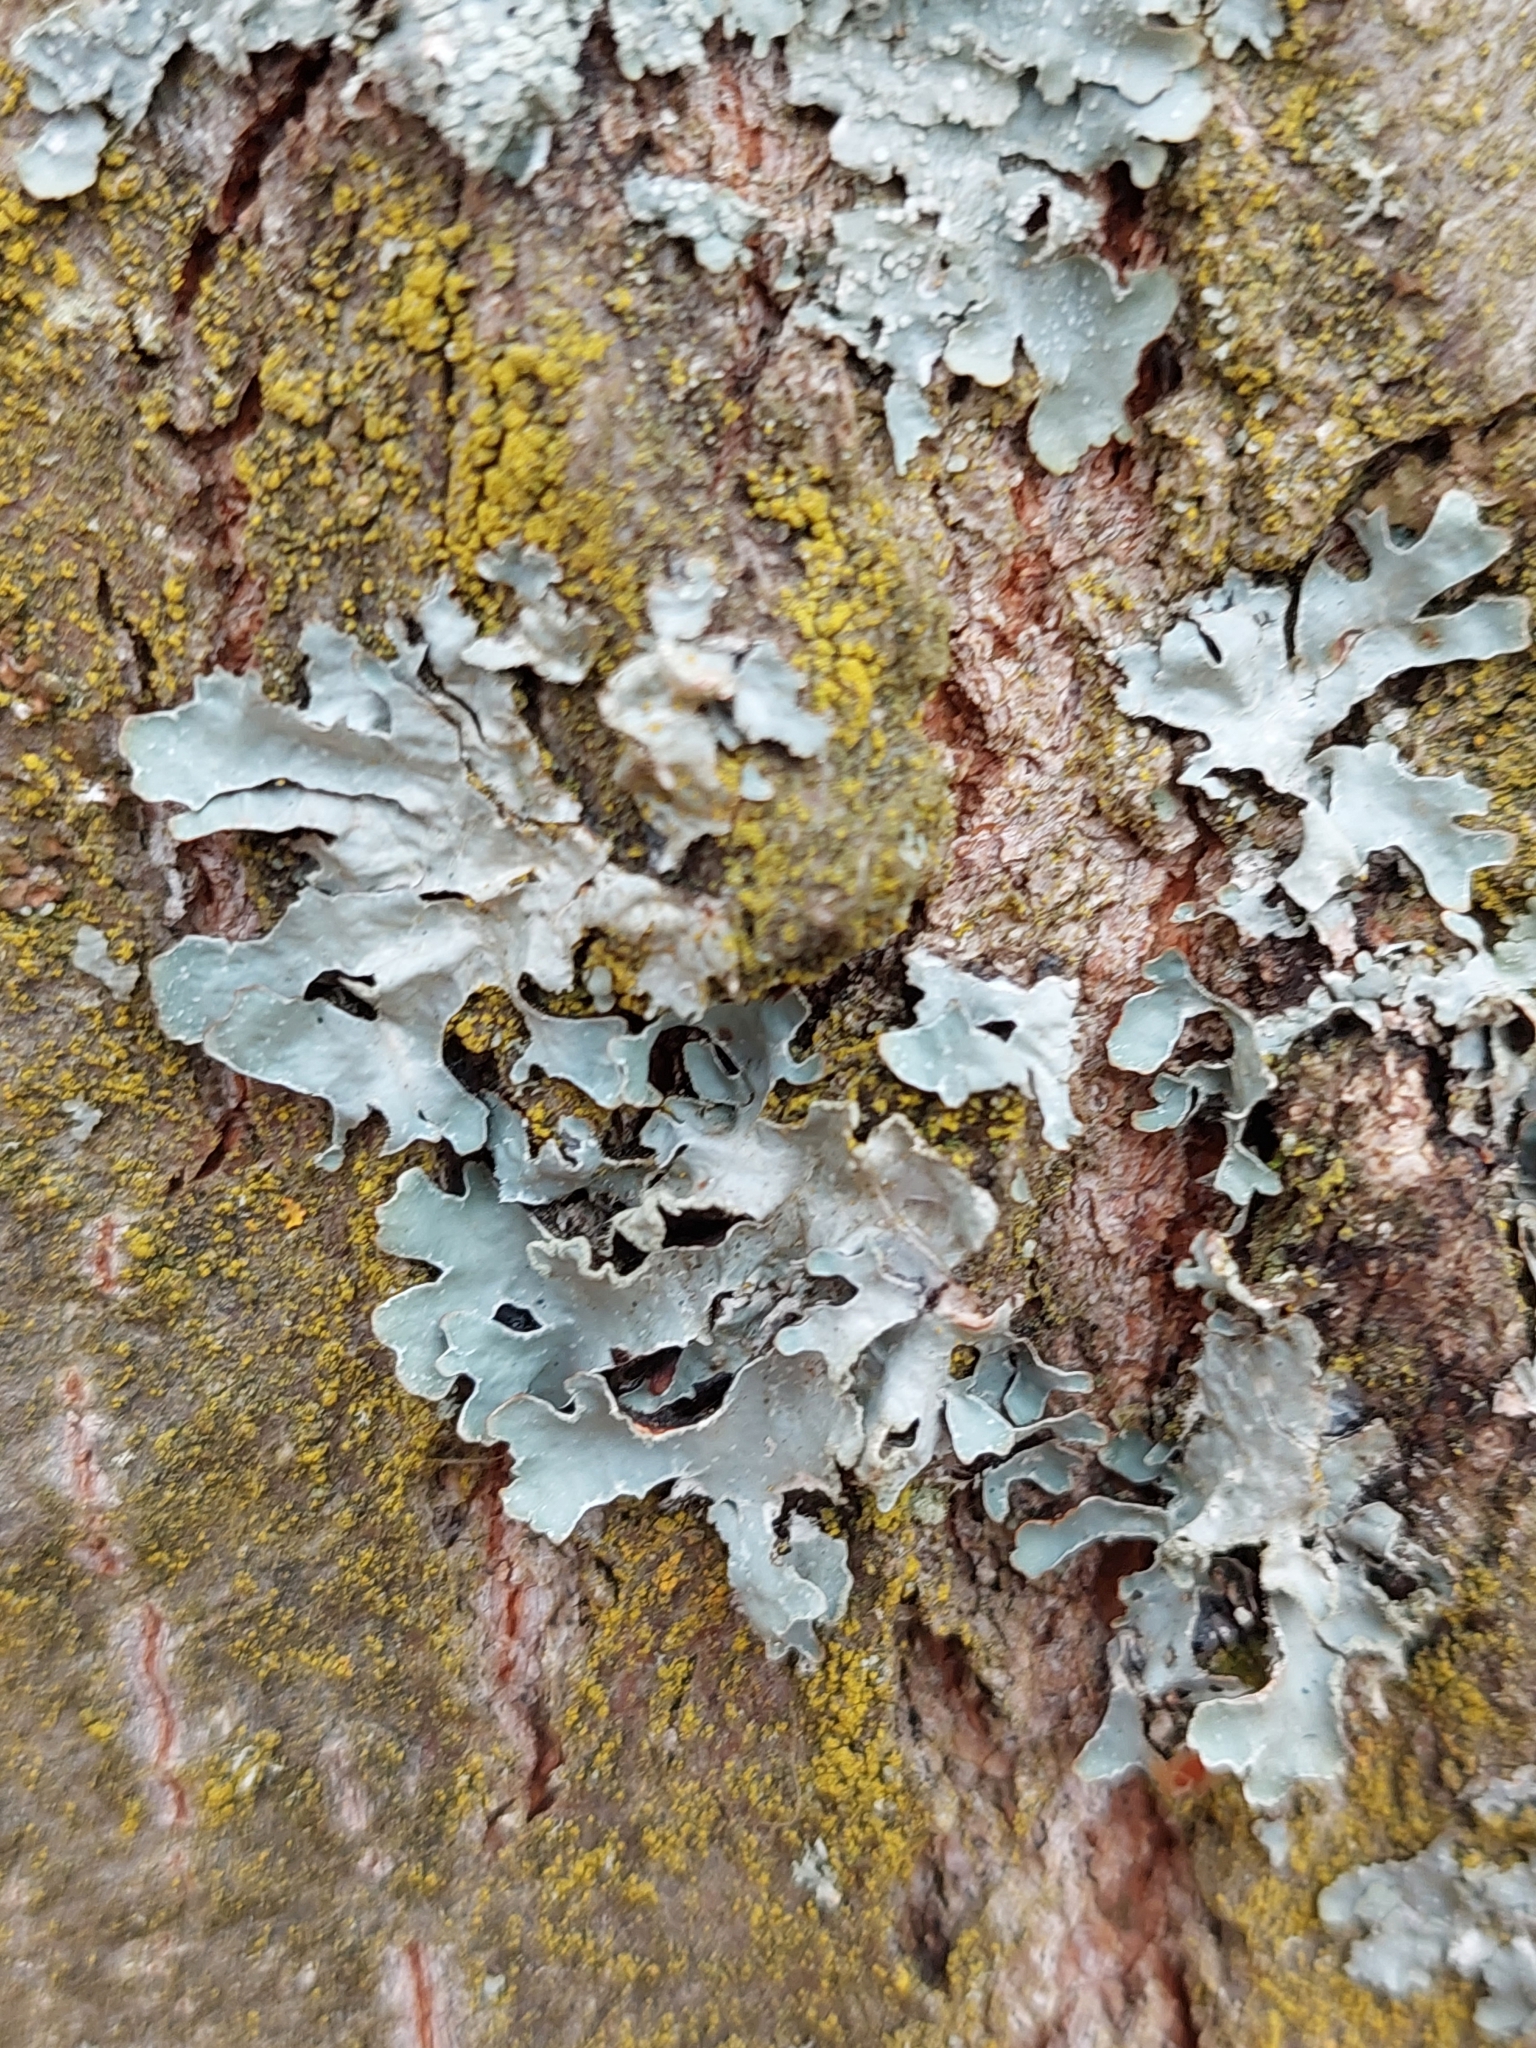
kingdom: Fungi
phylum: Ascomycota
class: Lecanoromycetes
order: Lecanorales
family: Parmeliaceae
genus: Parmelia
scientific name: Parmelia sulcata
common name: Netted shield lichen
